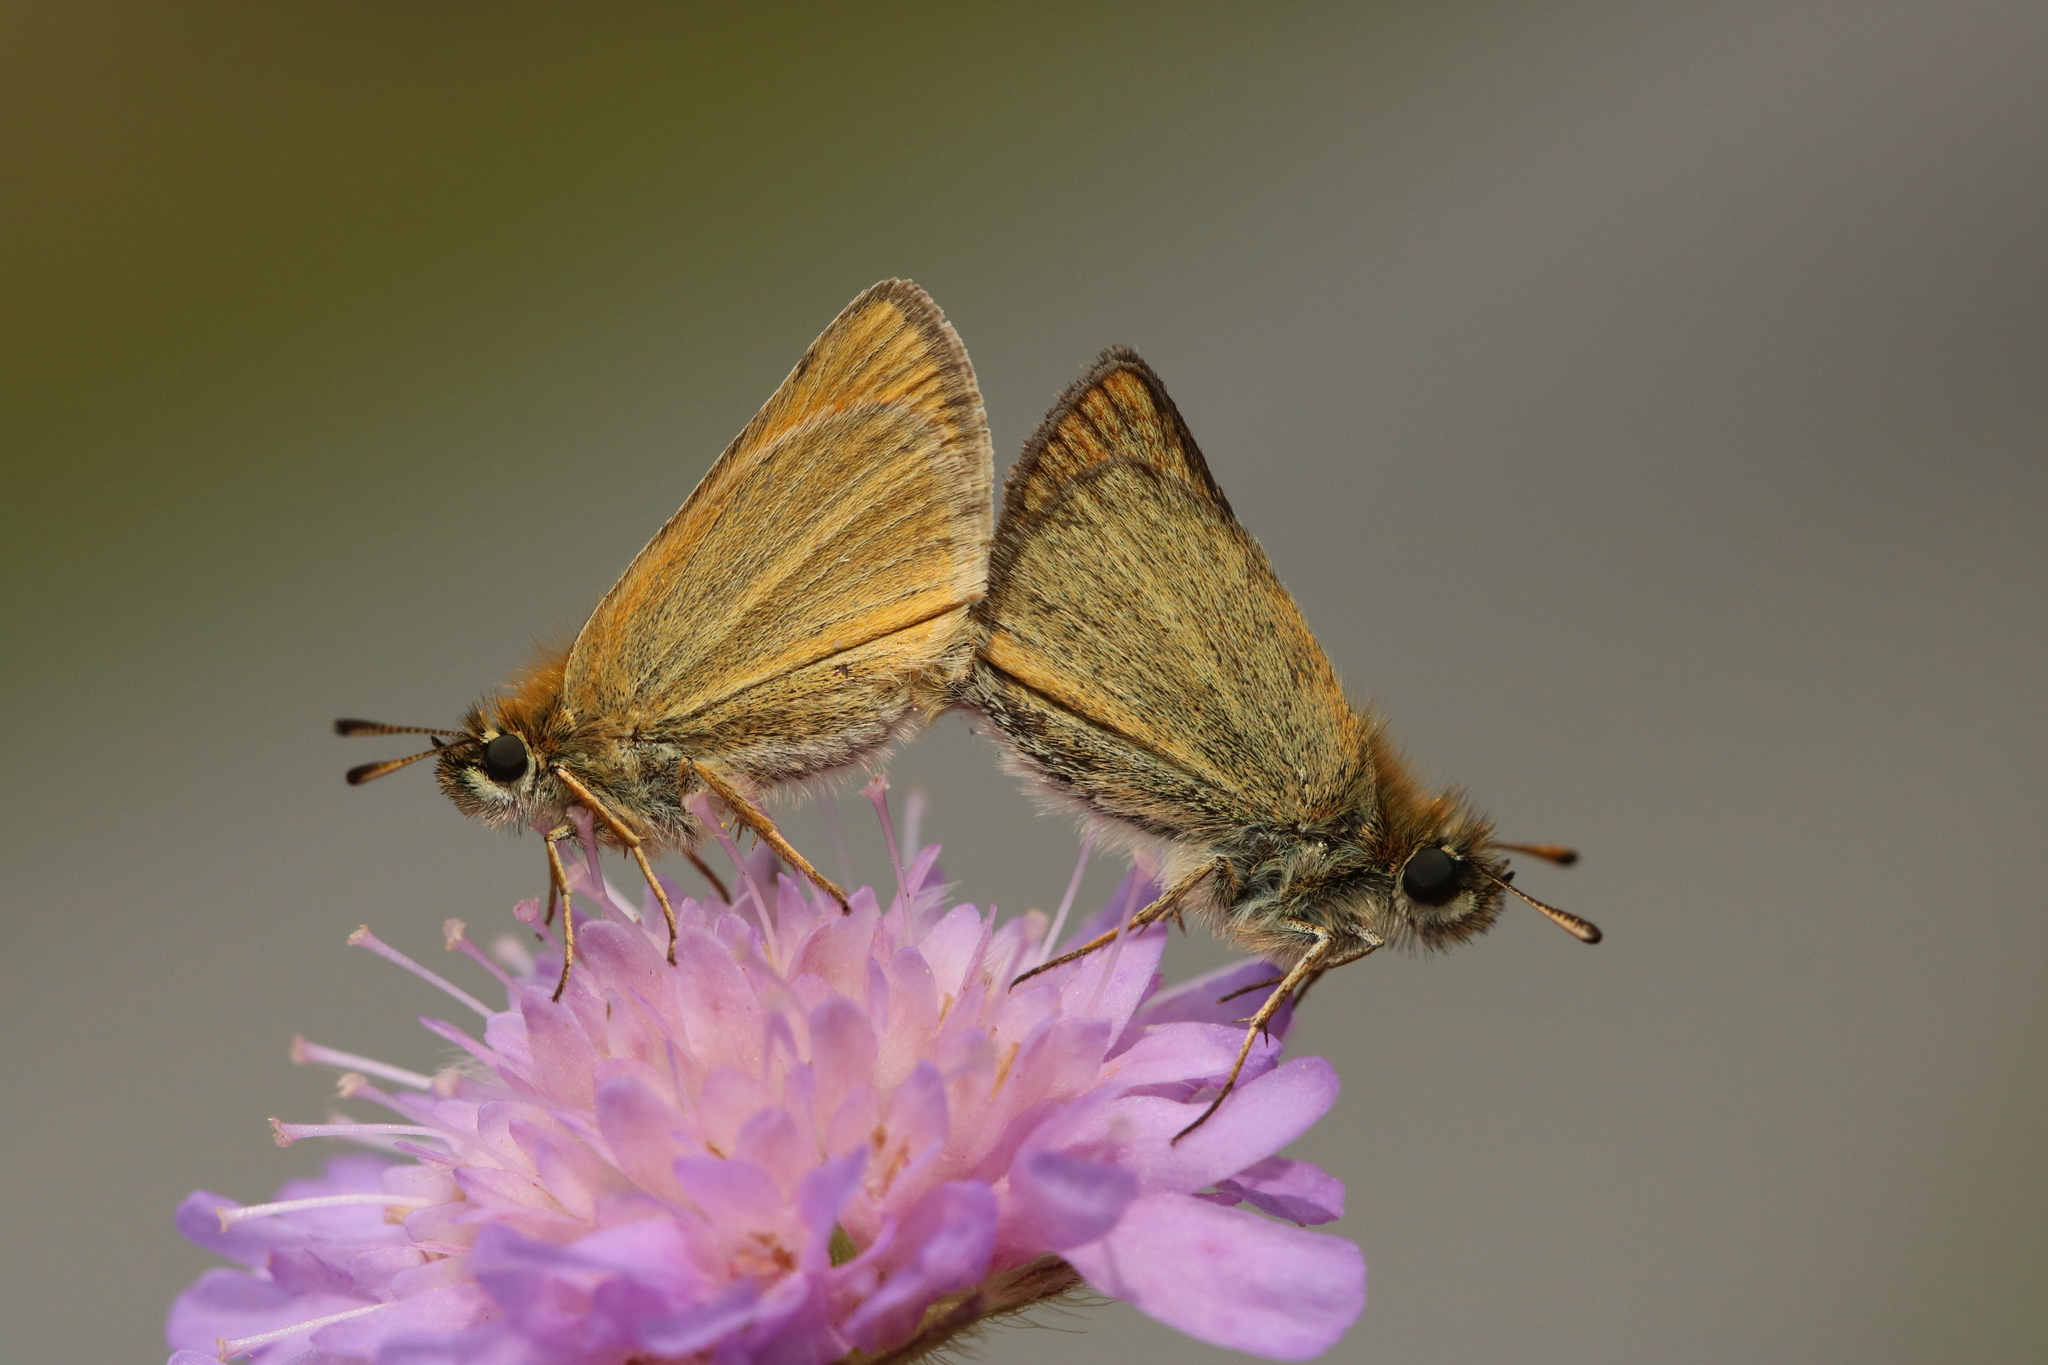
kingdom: Animalia
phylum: Arthropoda
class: Insecta
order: Lepidoptera
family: Hesperiidae
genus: Thymelicus
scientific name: Thymelicus lineola
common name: Essex skipper
